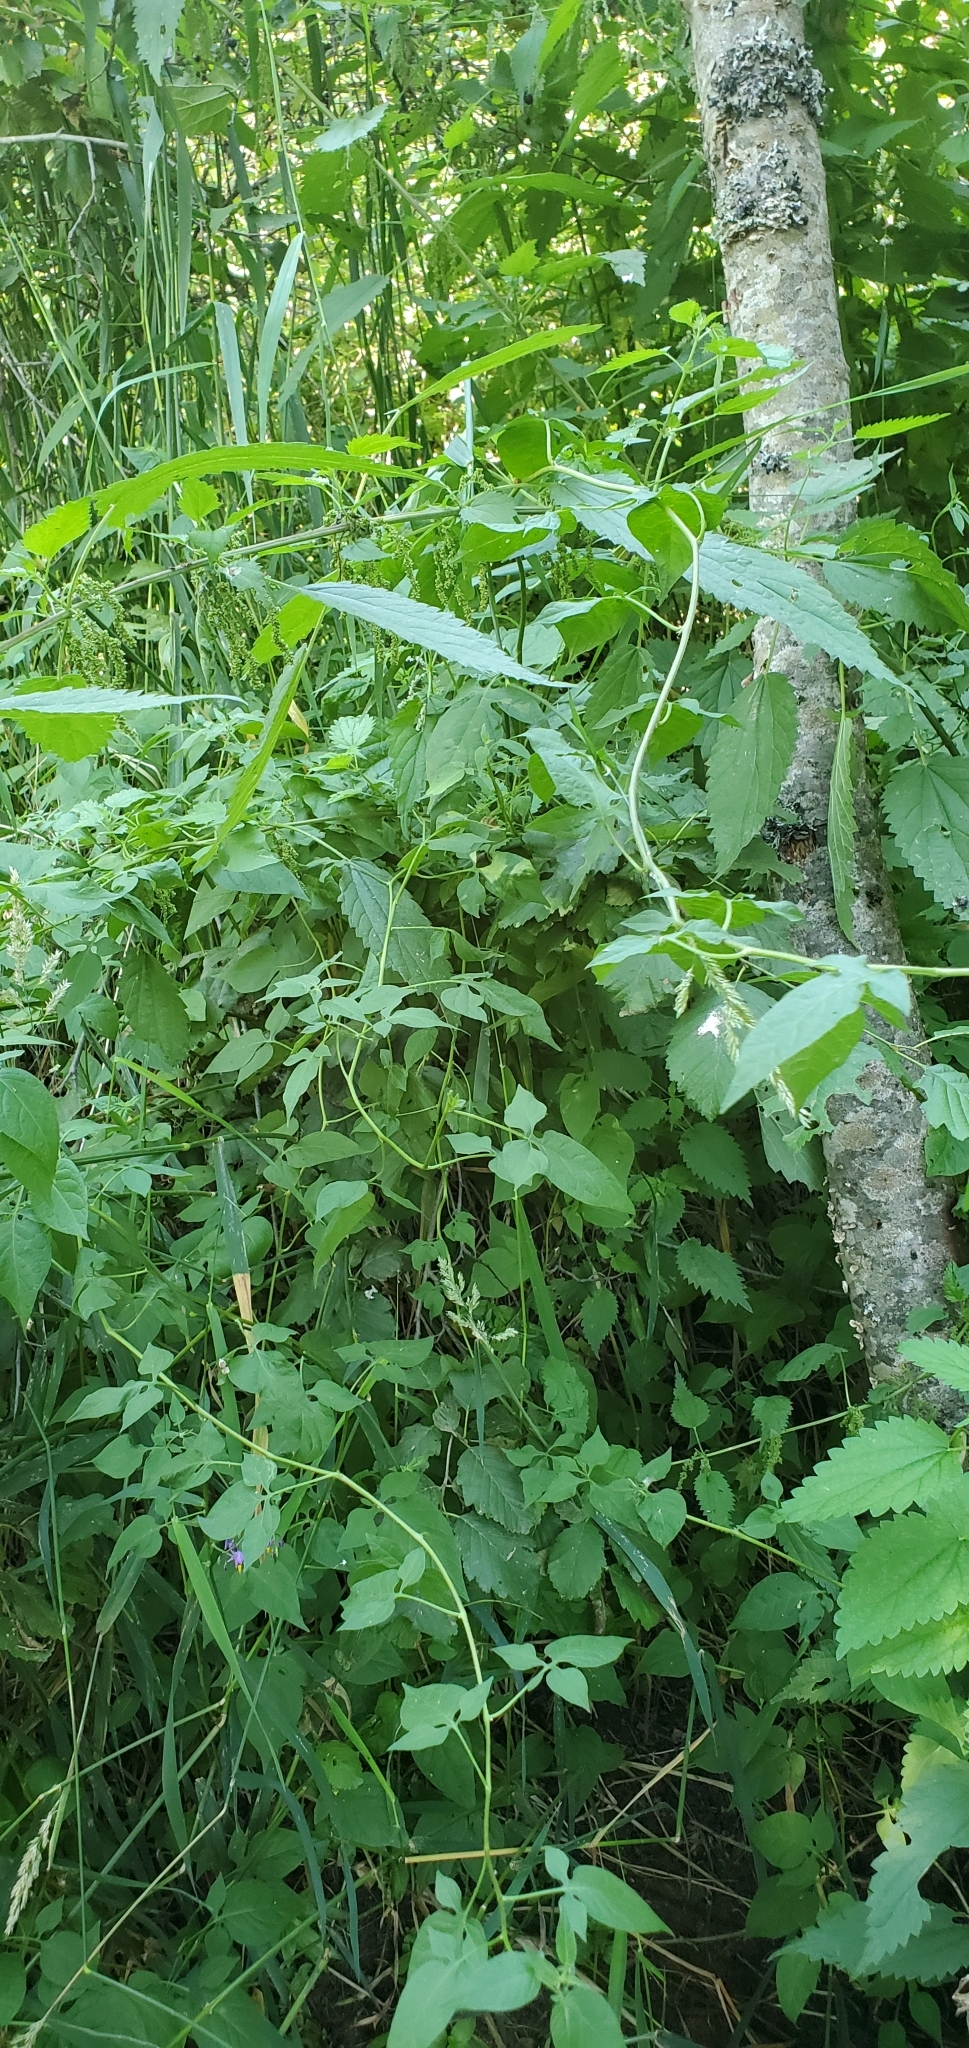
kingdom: Plantae
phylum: Tracheophyta
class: Magnoliopsida
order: Solanales
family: Solanaceae
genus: Solanum
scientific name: Solanum dulcamara
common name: Climbing nightshade
